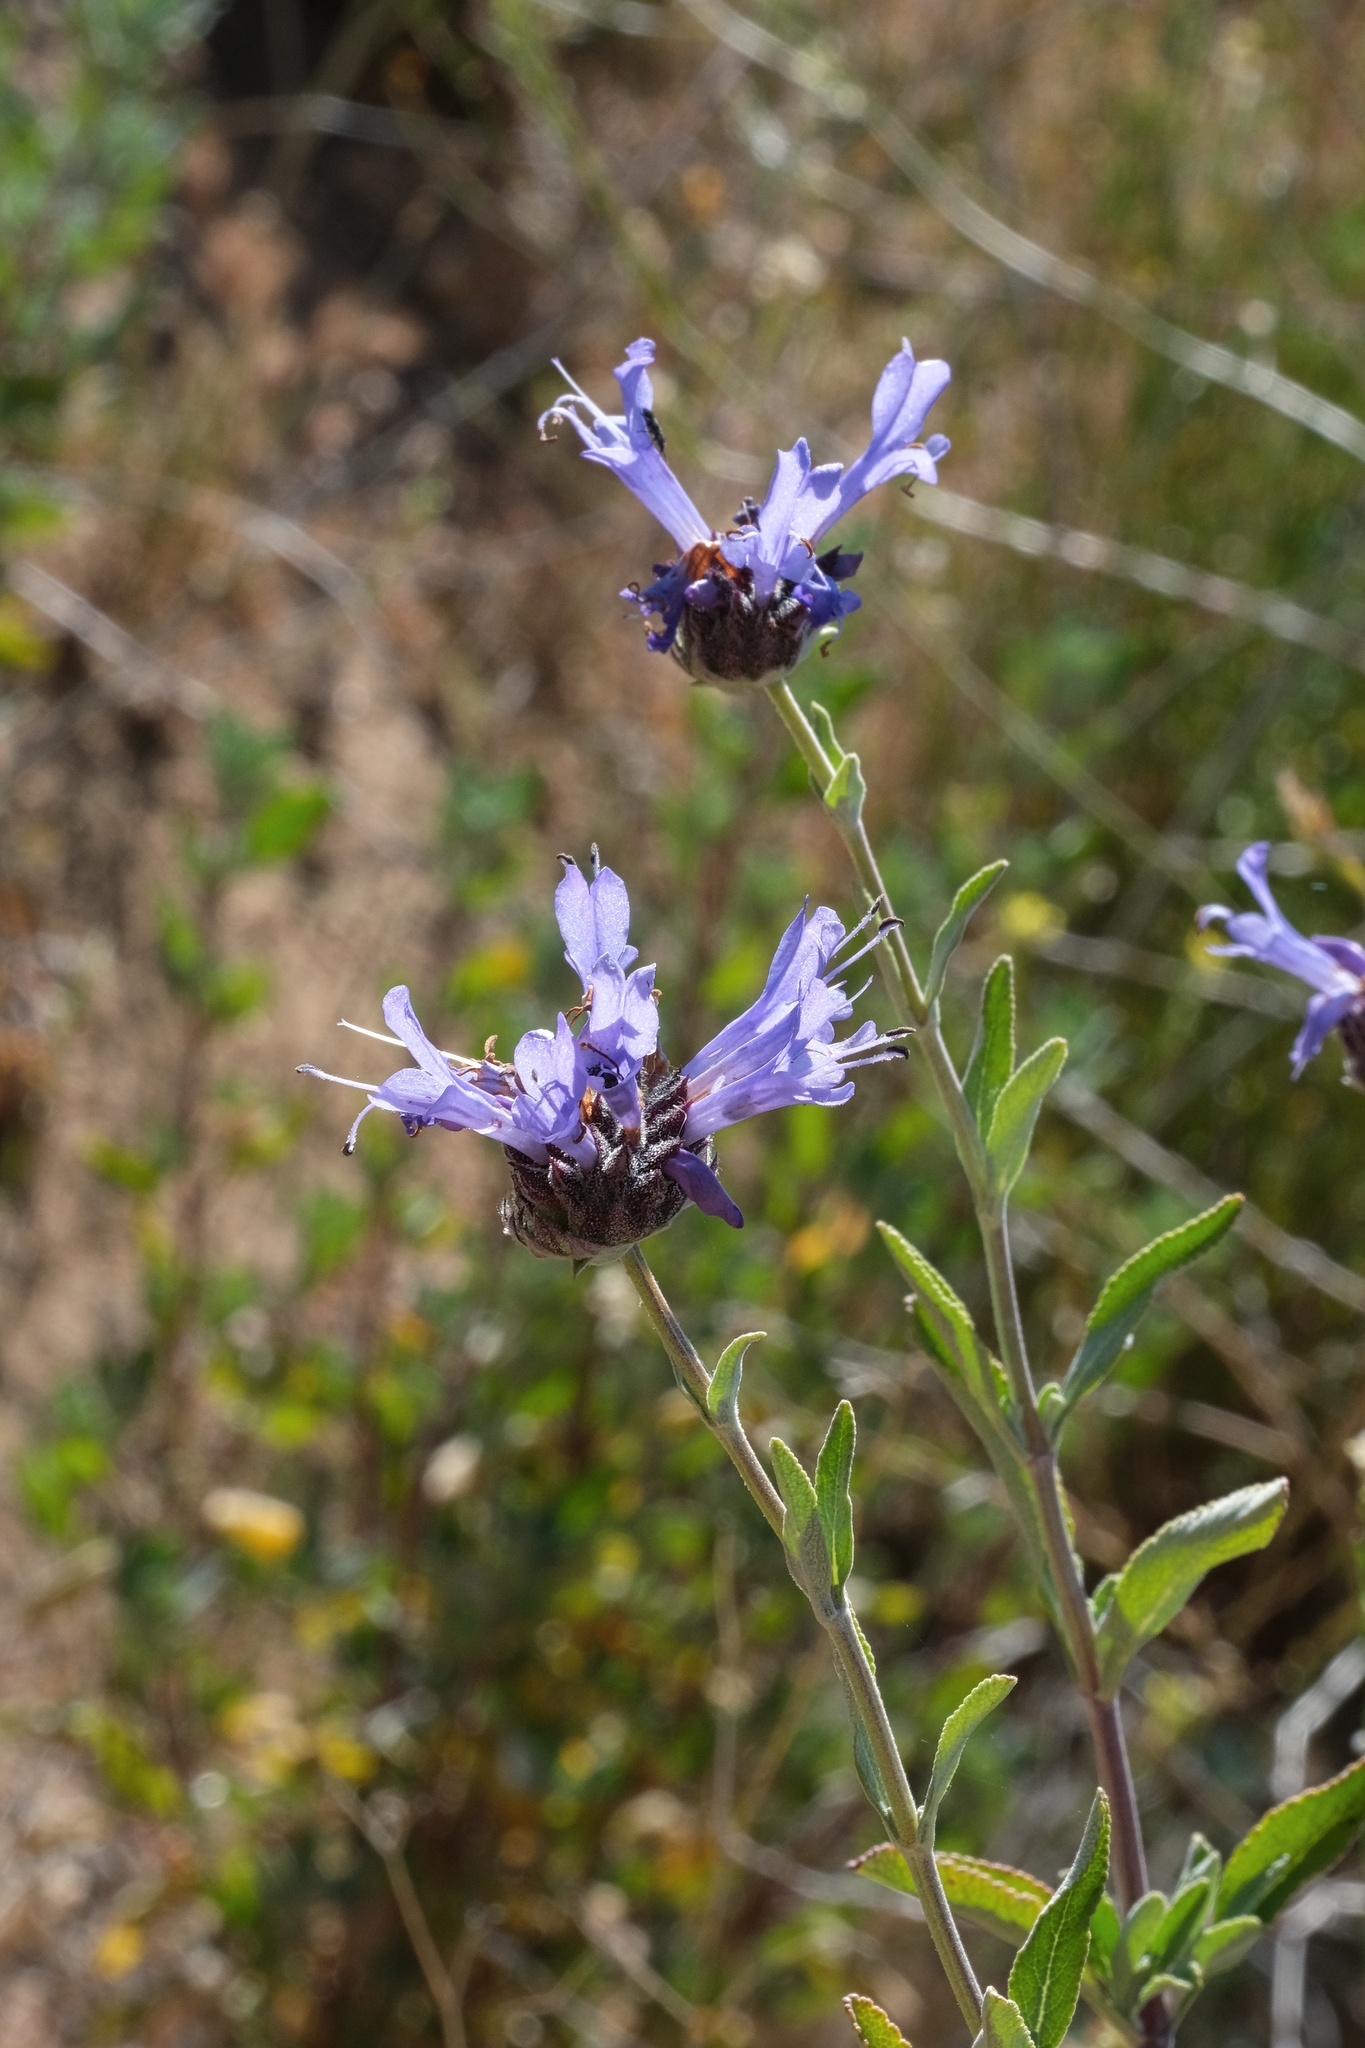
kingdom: Plantae
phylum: Tracheophyta
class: Magnoliopsida
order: Lamiales
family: Lamiaceae
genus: Salvia
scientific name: Salvia clevelandii
